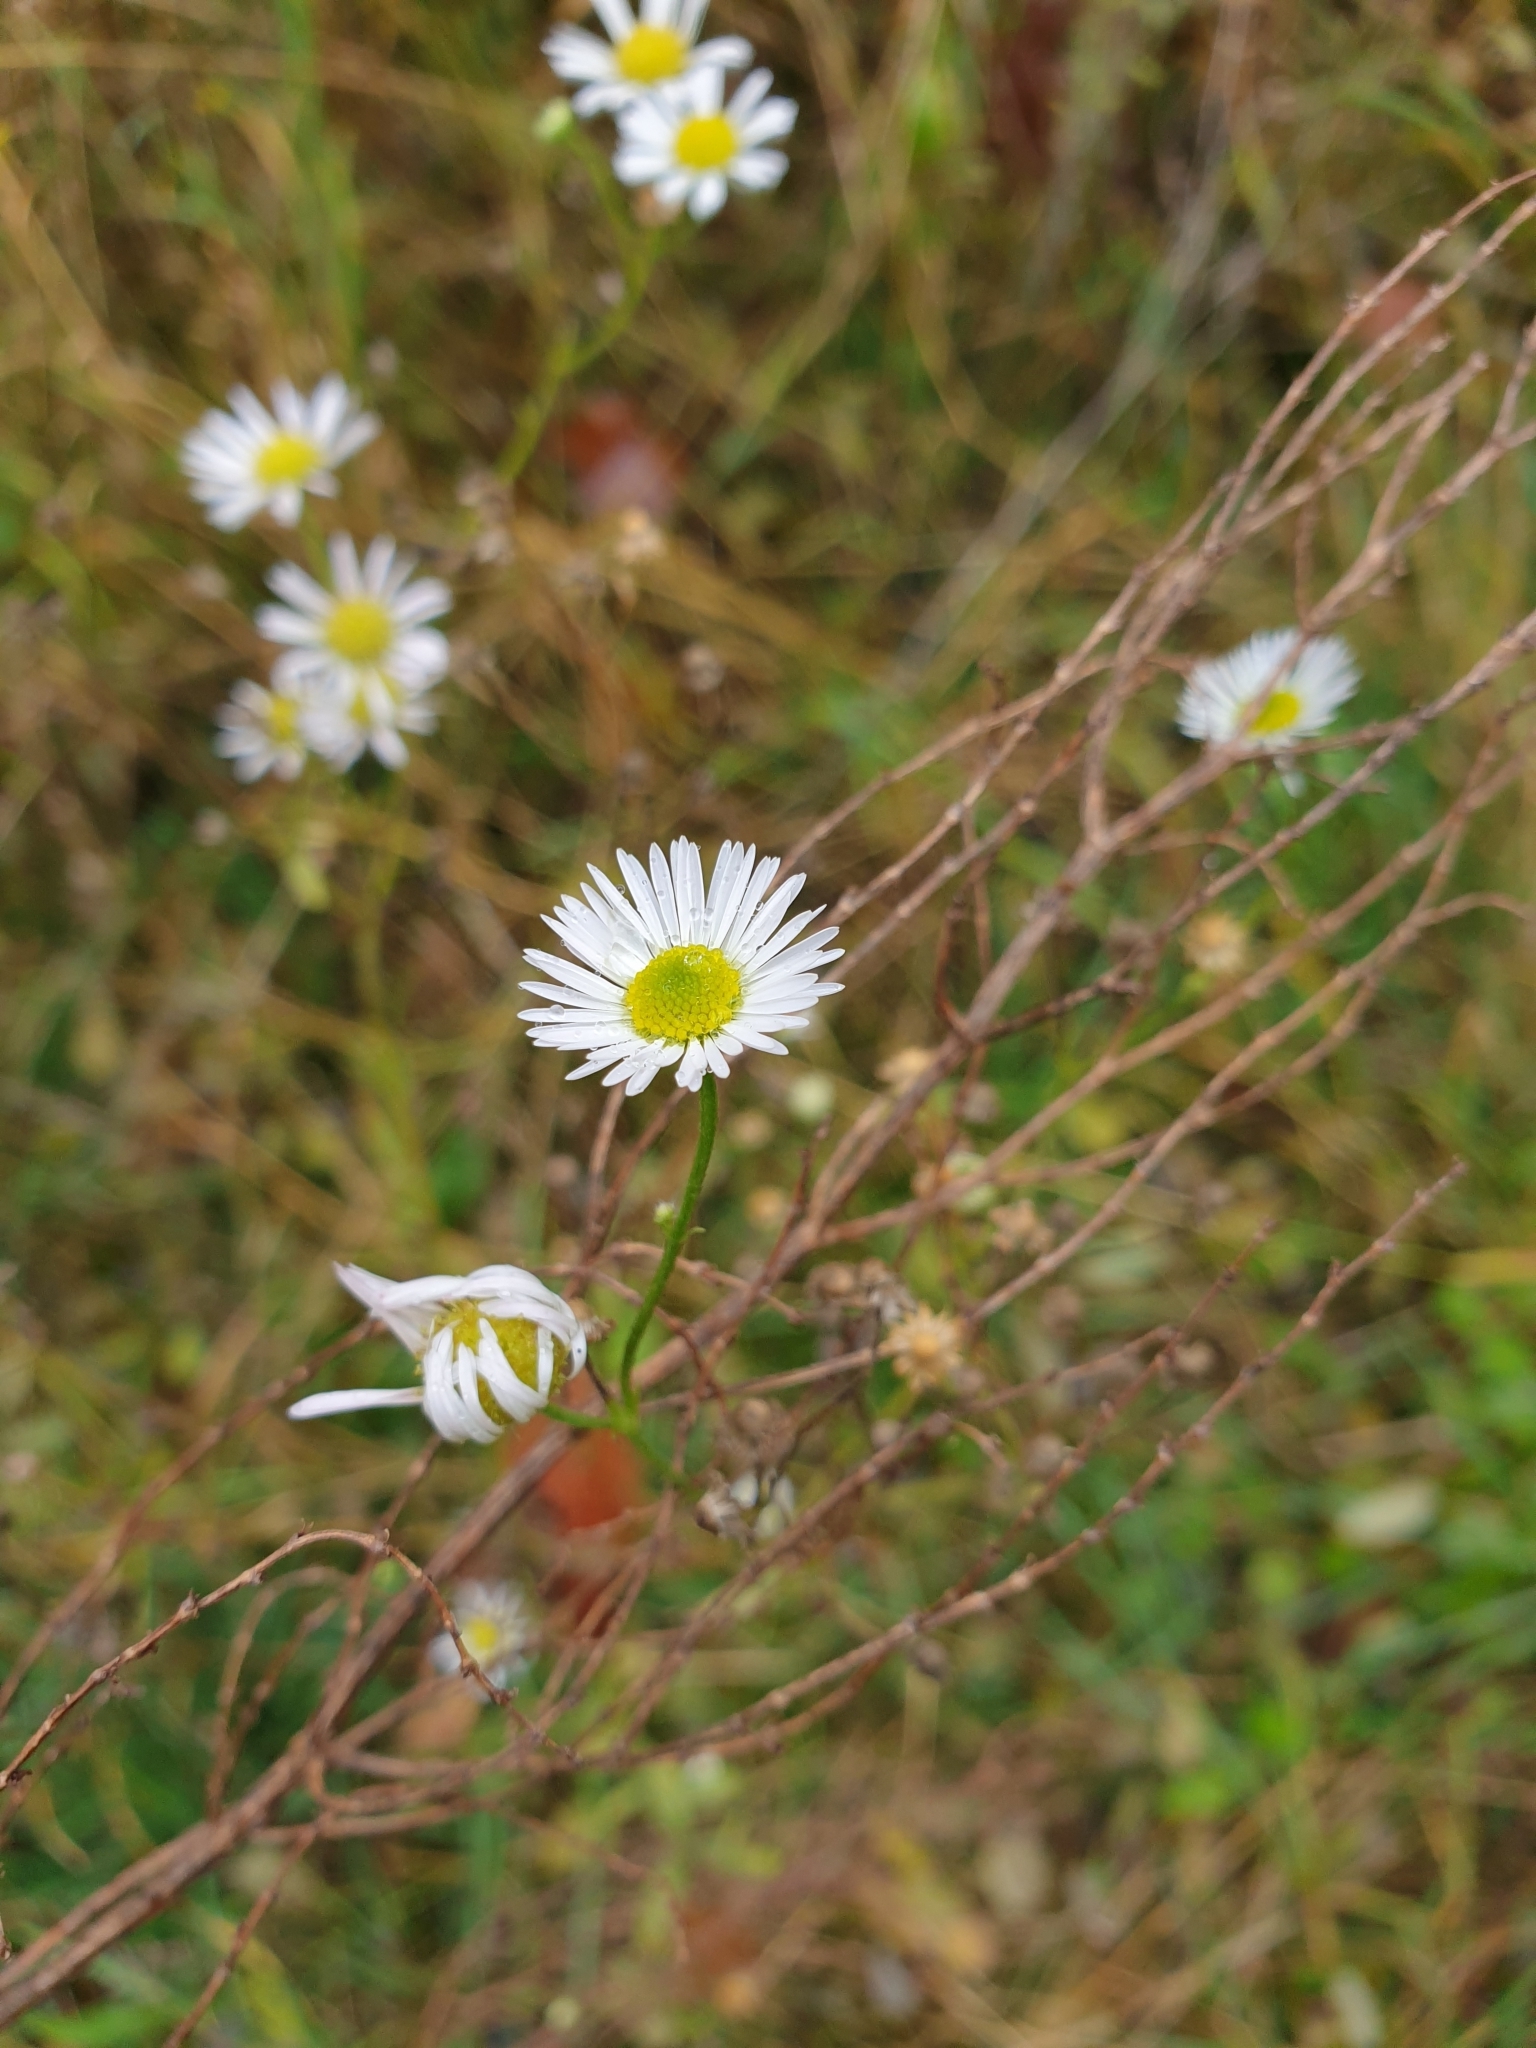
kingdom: Plantae
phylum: Tracheophyta
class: Magnoliopsida
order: Asterales
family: Asteraceae
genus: Erigeron
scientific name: Erigeron annuus
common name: Tall fleabane
